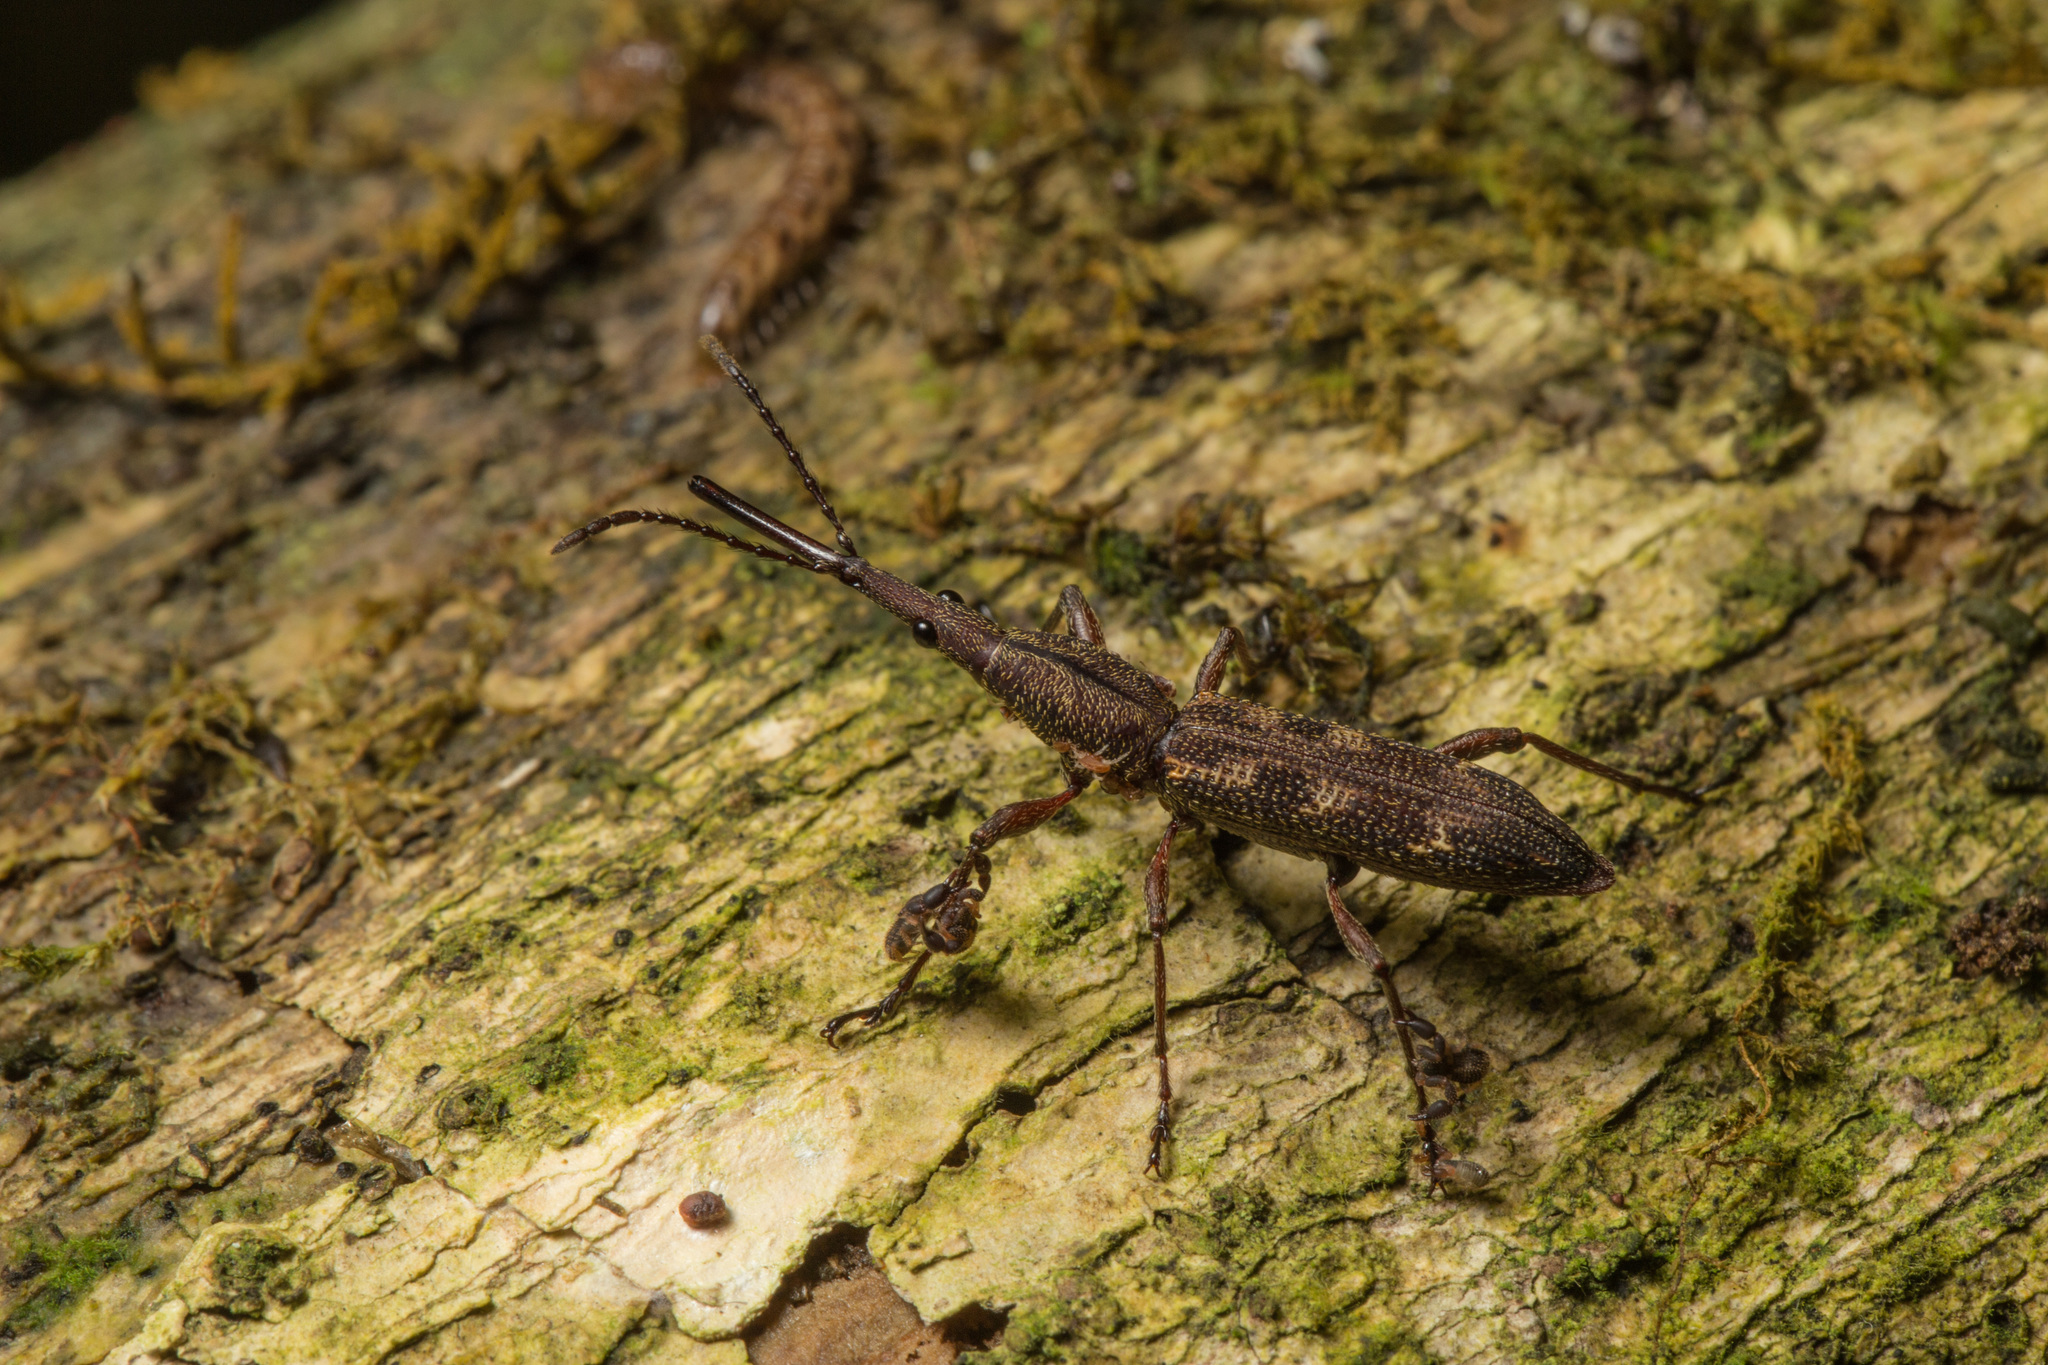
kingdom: Animalia
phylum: Arthropoda
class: Insecta
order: Coleoptera
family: Brentidae
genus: Lasiorhynchus
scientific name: Lasiorhynchus barbicornis
